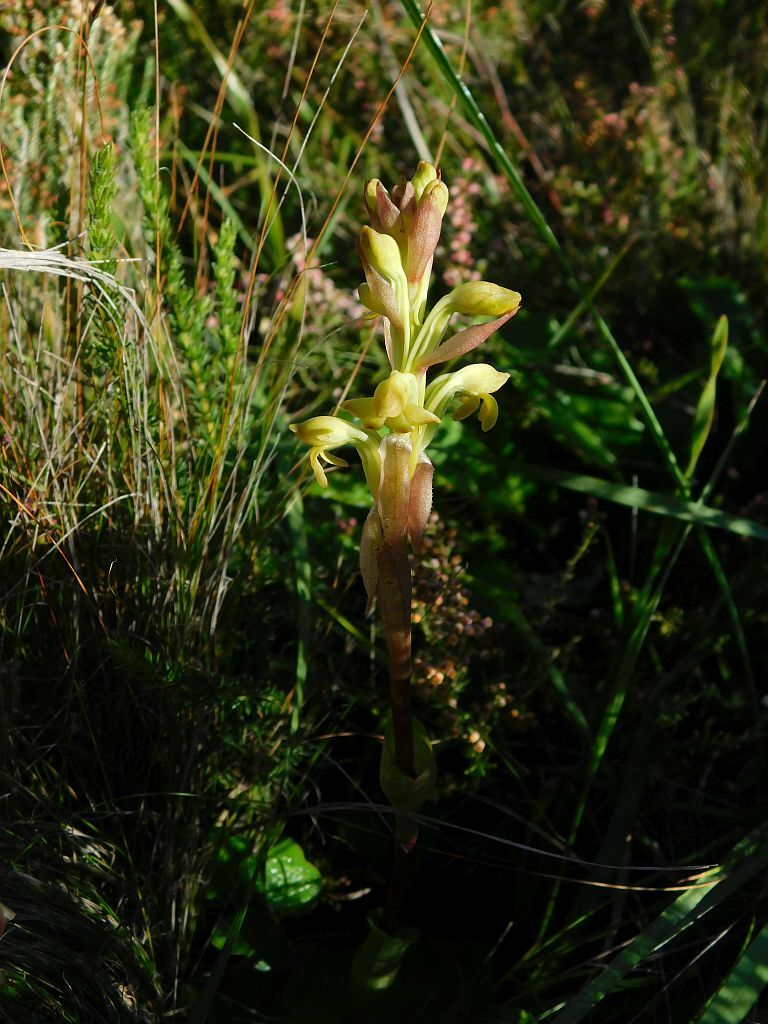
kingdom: Plantae
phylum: Tracheophyta
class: Liliopsida
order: Asparagales
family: Orchidaceae
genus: Satyrium
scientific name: Satyrium bicorne
